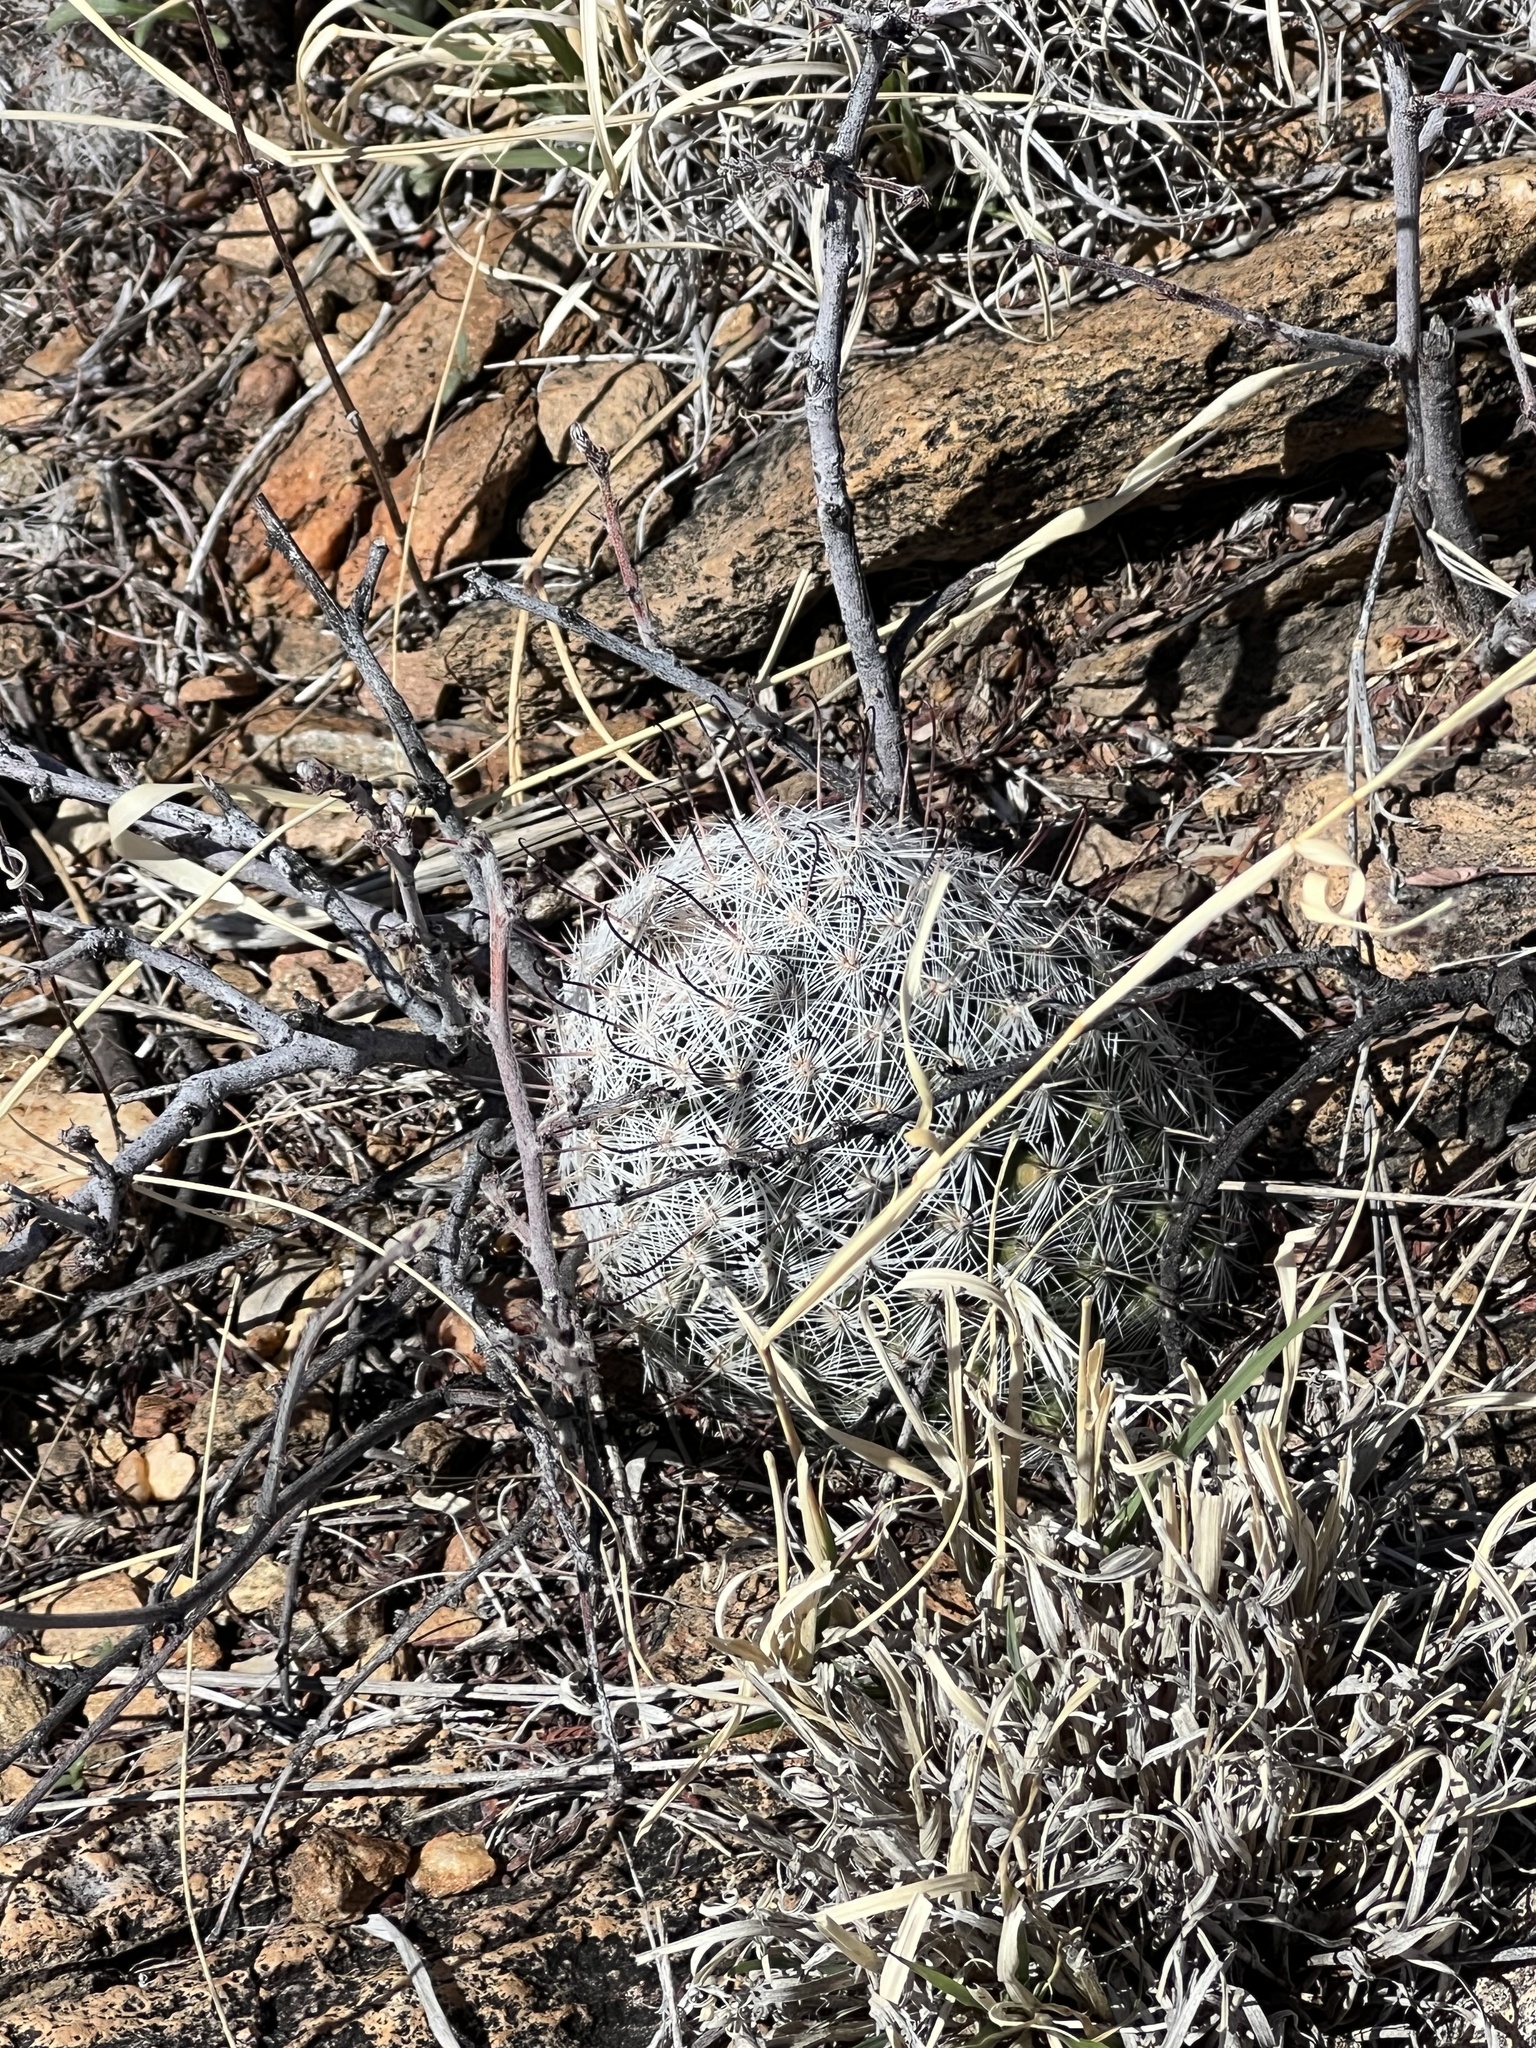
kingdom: Plantae
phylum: Tracheophyta
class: Magnoliopsida
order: Caryophyllales
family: Cactaceae
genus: Cochemiea
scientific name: Cochemiea grahamii
